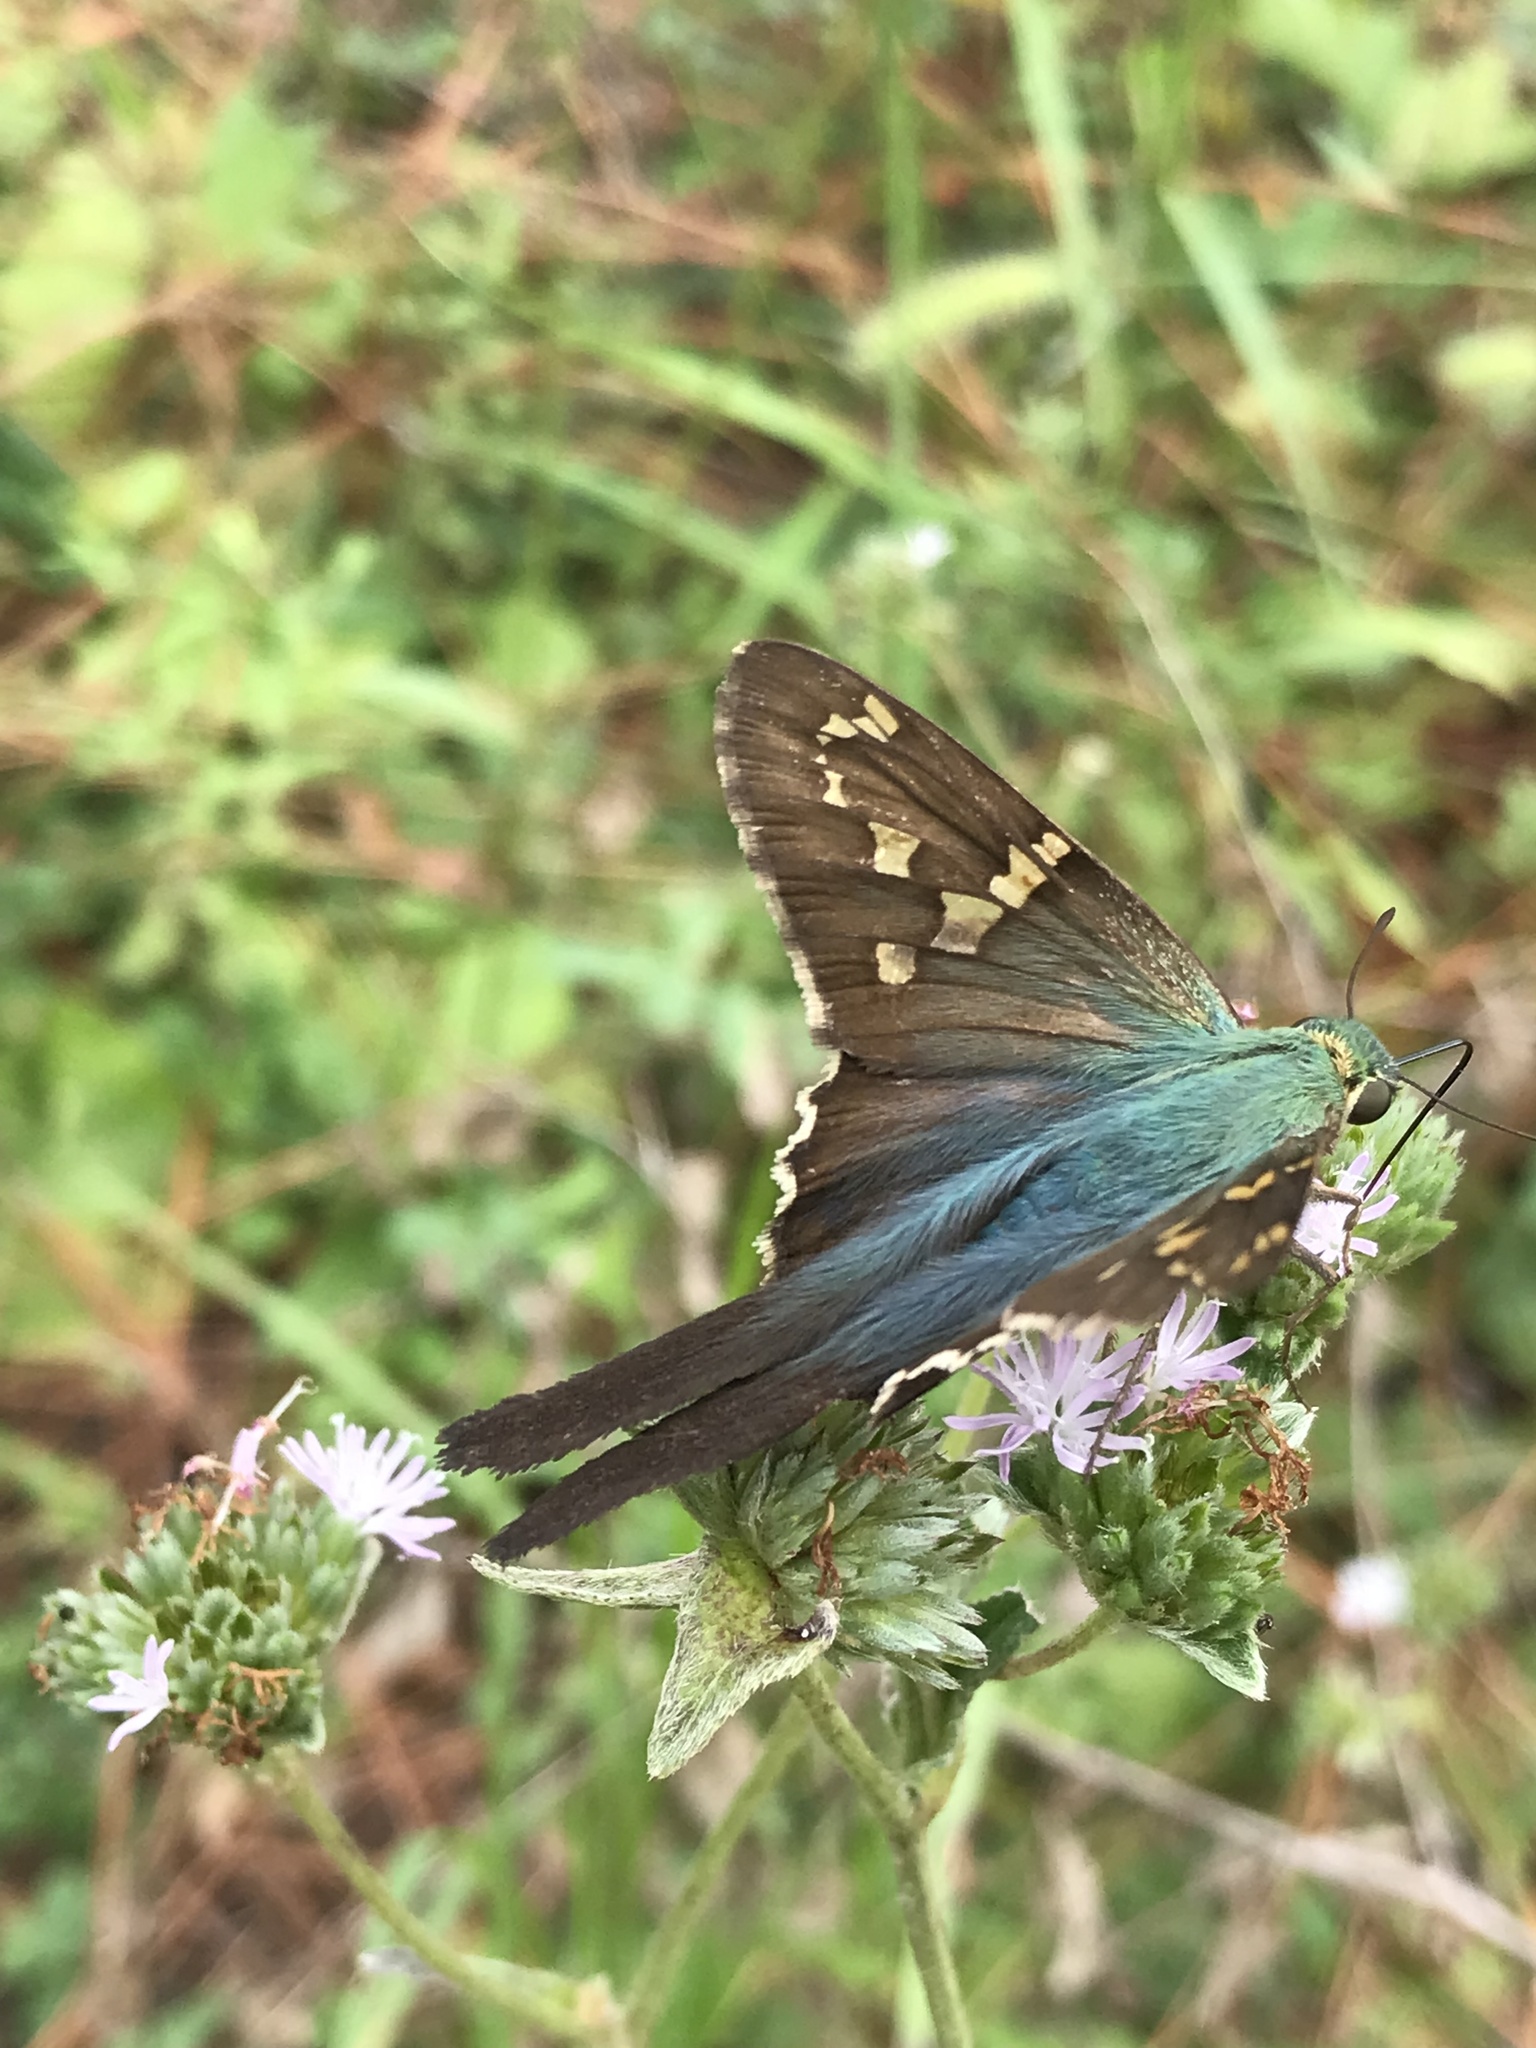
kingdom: Animalia
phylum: Arthropoda
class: Insecta
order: Lepidoptera
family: Hesperiidae
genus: Urbanus
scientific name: Urbanus proteus
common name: Long-tailed skipper
